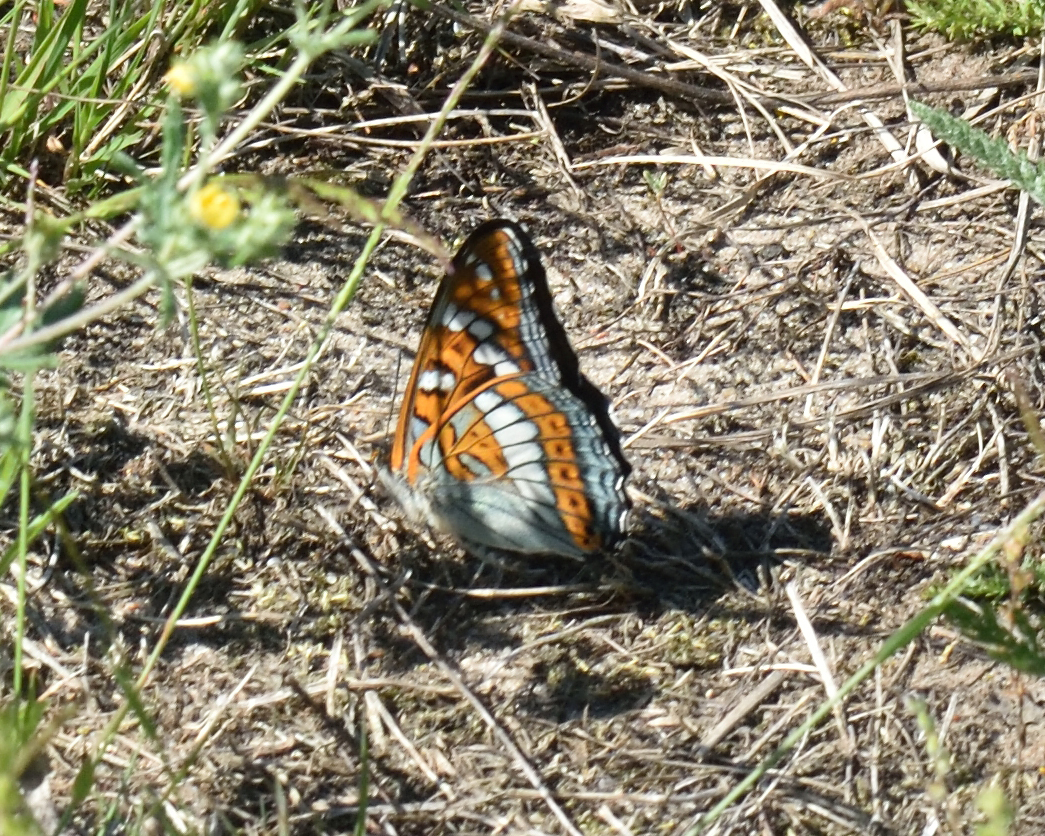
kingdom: Animalia
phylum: Arthropoda
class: Insecta
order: Lepidoptera
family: Nymphalidae
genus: Limenitis
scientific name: Limenitis populi
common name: Poplar admiral
